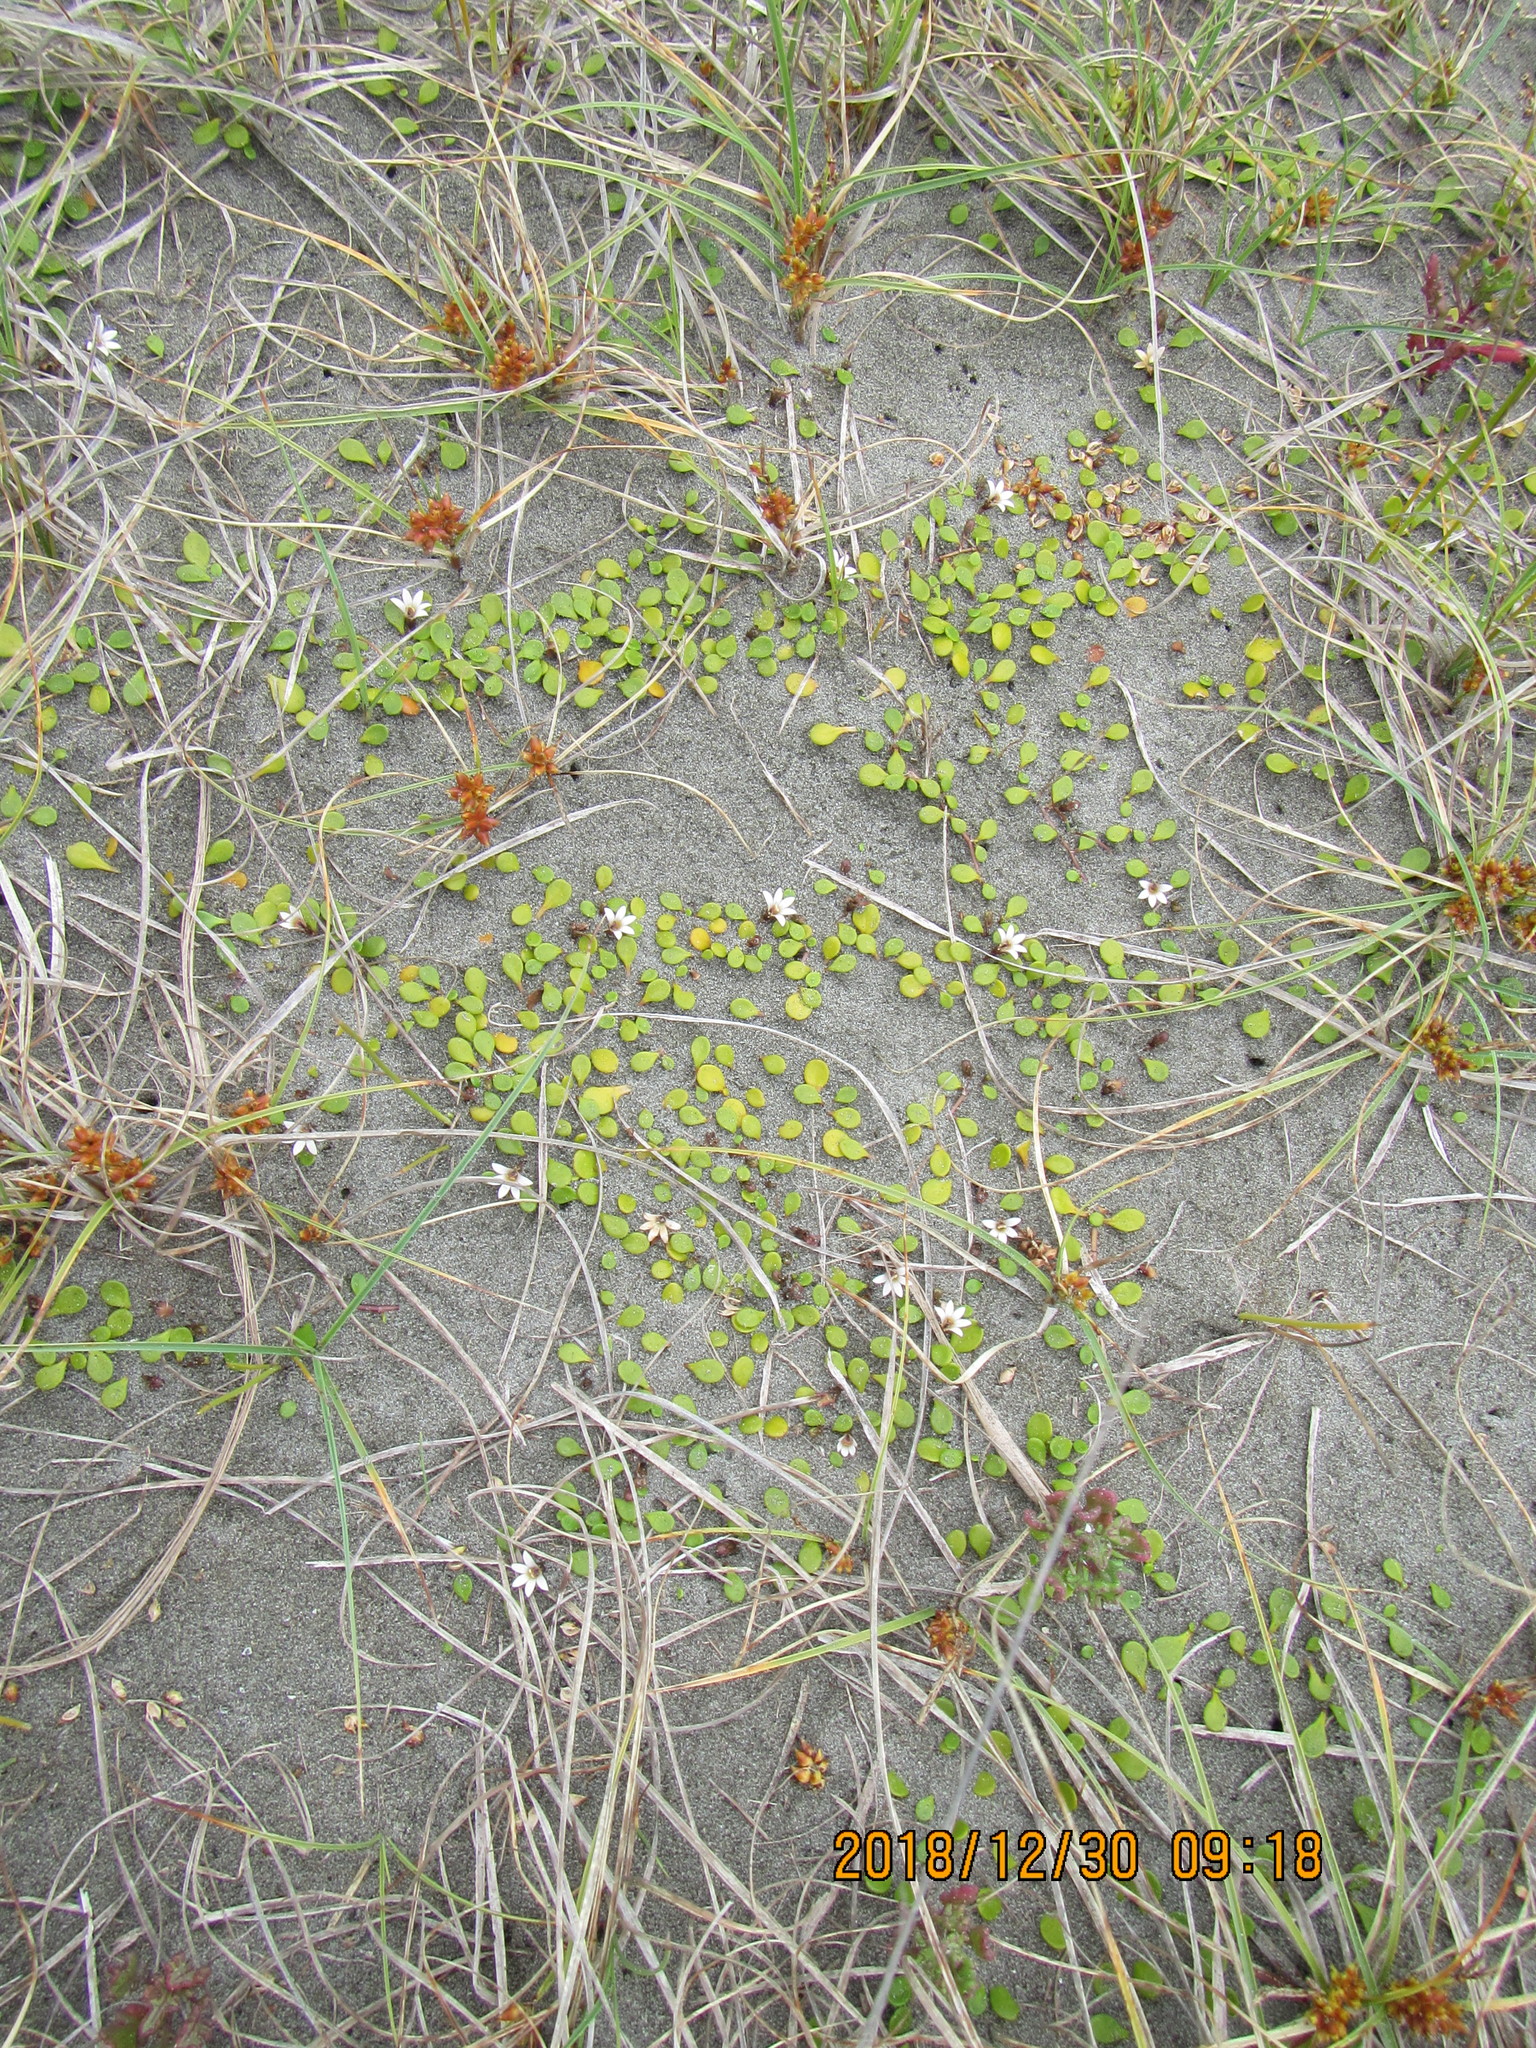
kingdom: Plantae
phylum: Tracheophyta
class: Magnoliopsida
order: Asterales
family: Goodeniaceae
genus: Goodenia
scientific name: Goodenia heenanii
